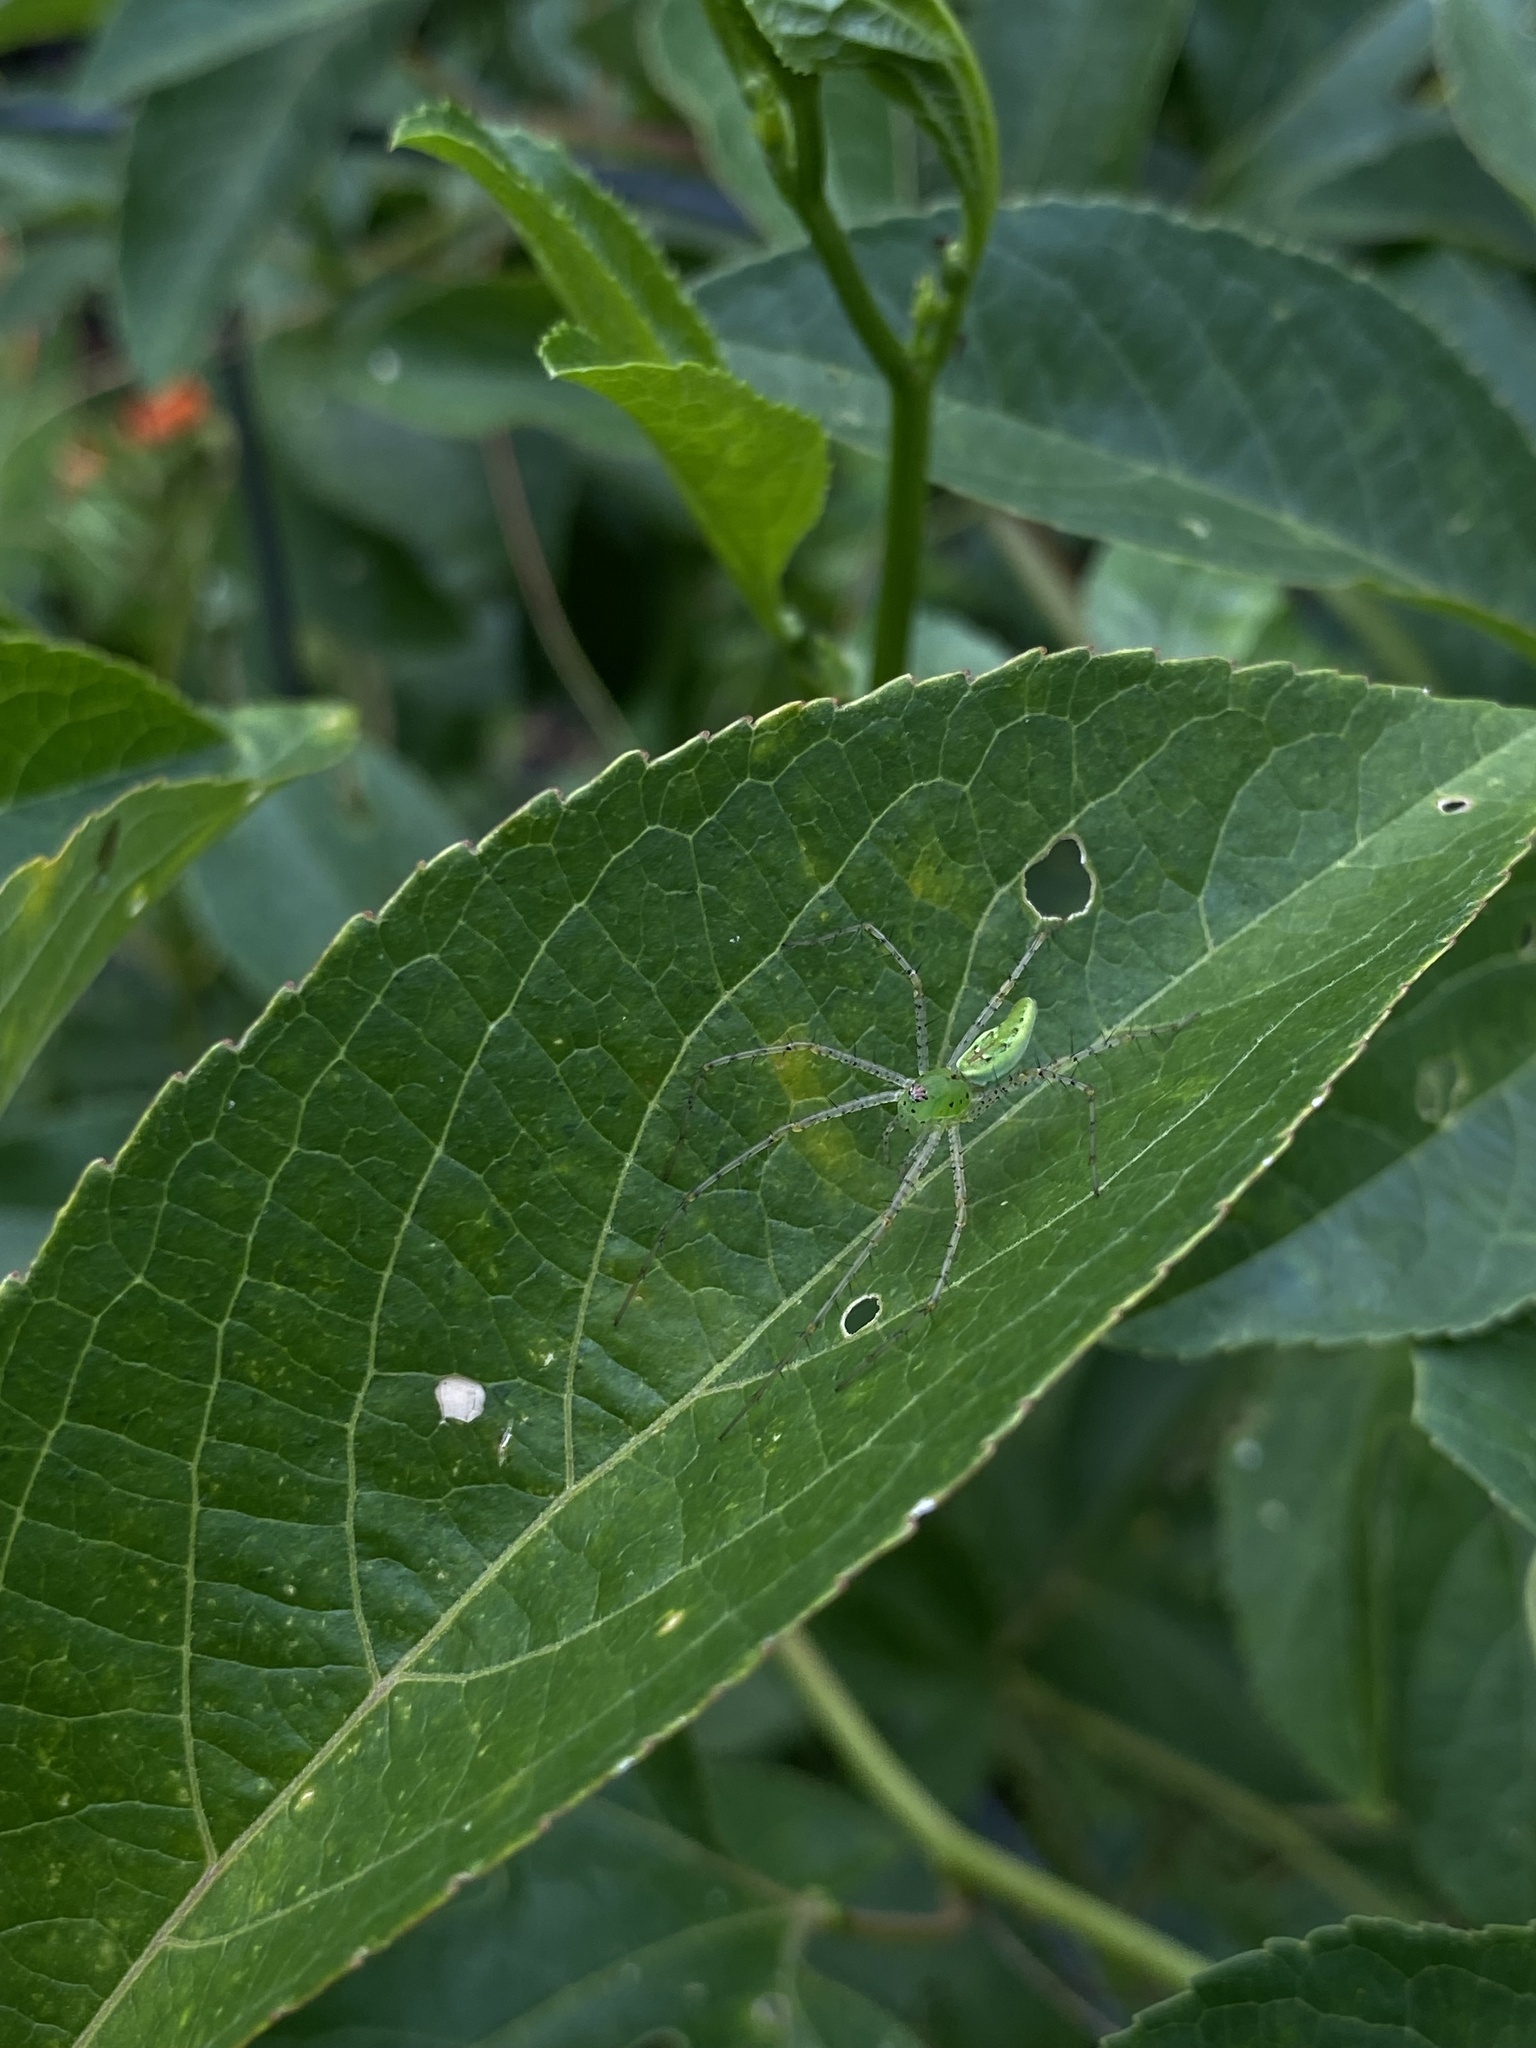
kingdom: Animalia
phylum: Arthropoda
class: Arachnida
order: Araneae
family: Oxyopidae
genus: Peucetia
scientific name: Peucetia viridans
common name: Lynx spiders
